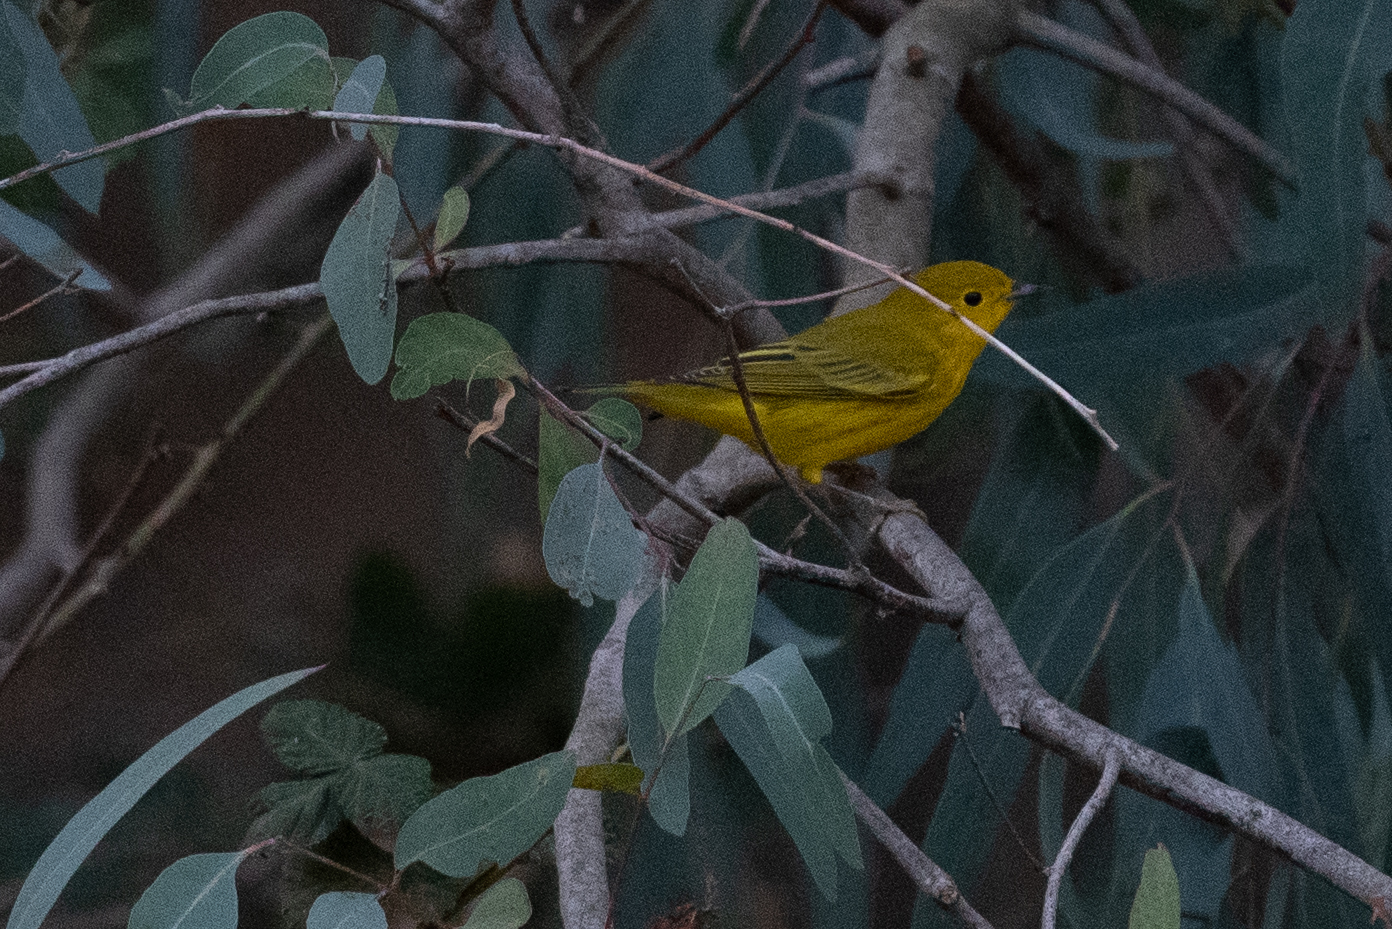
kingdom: Animalia
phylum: Chordata
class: Aves
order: Passeriformes
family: Parulidae
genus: Setophaga
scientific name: Setophaga petechia
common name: Yellow warbler
